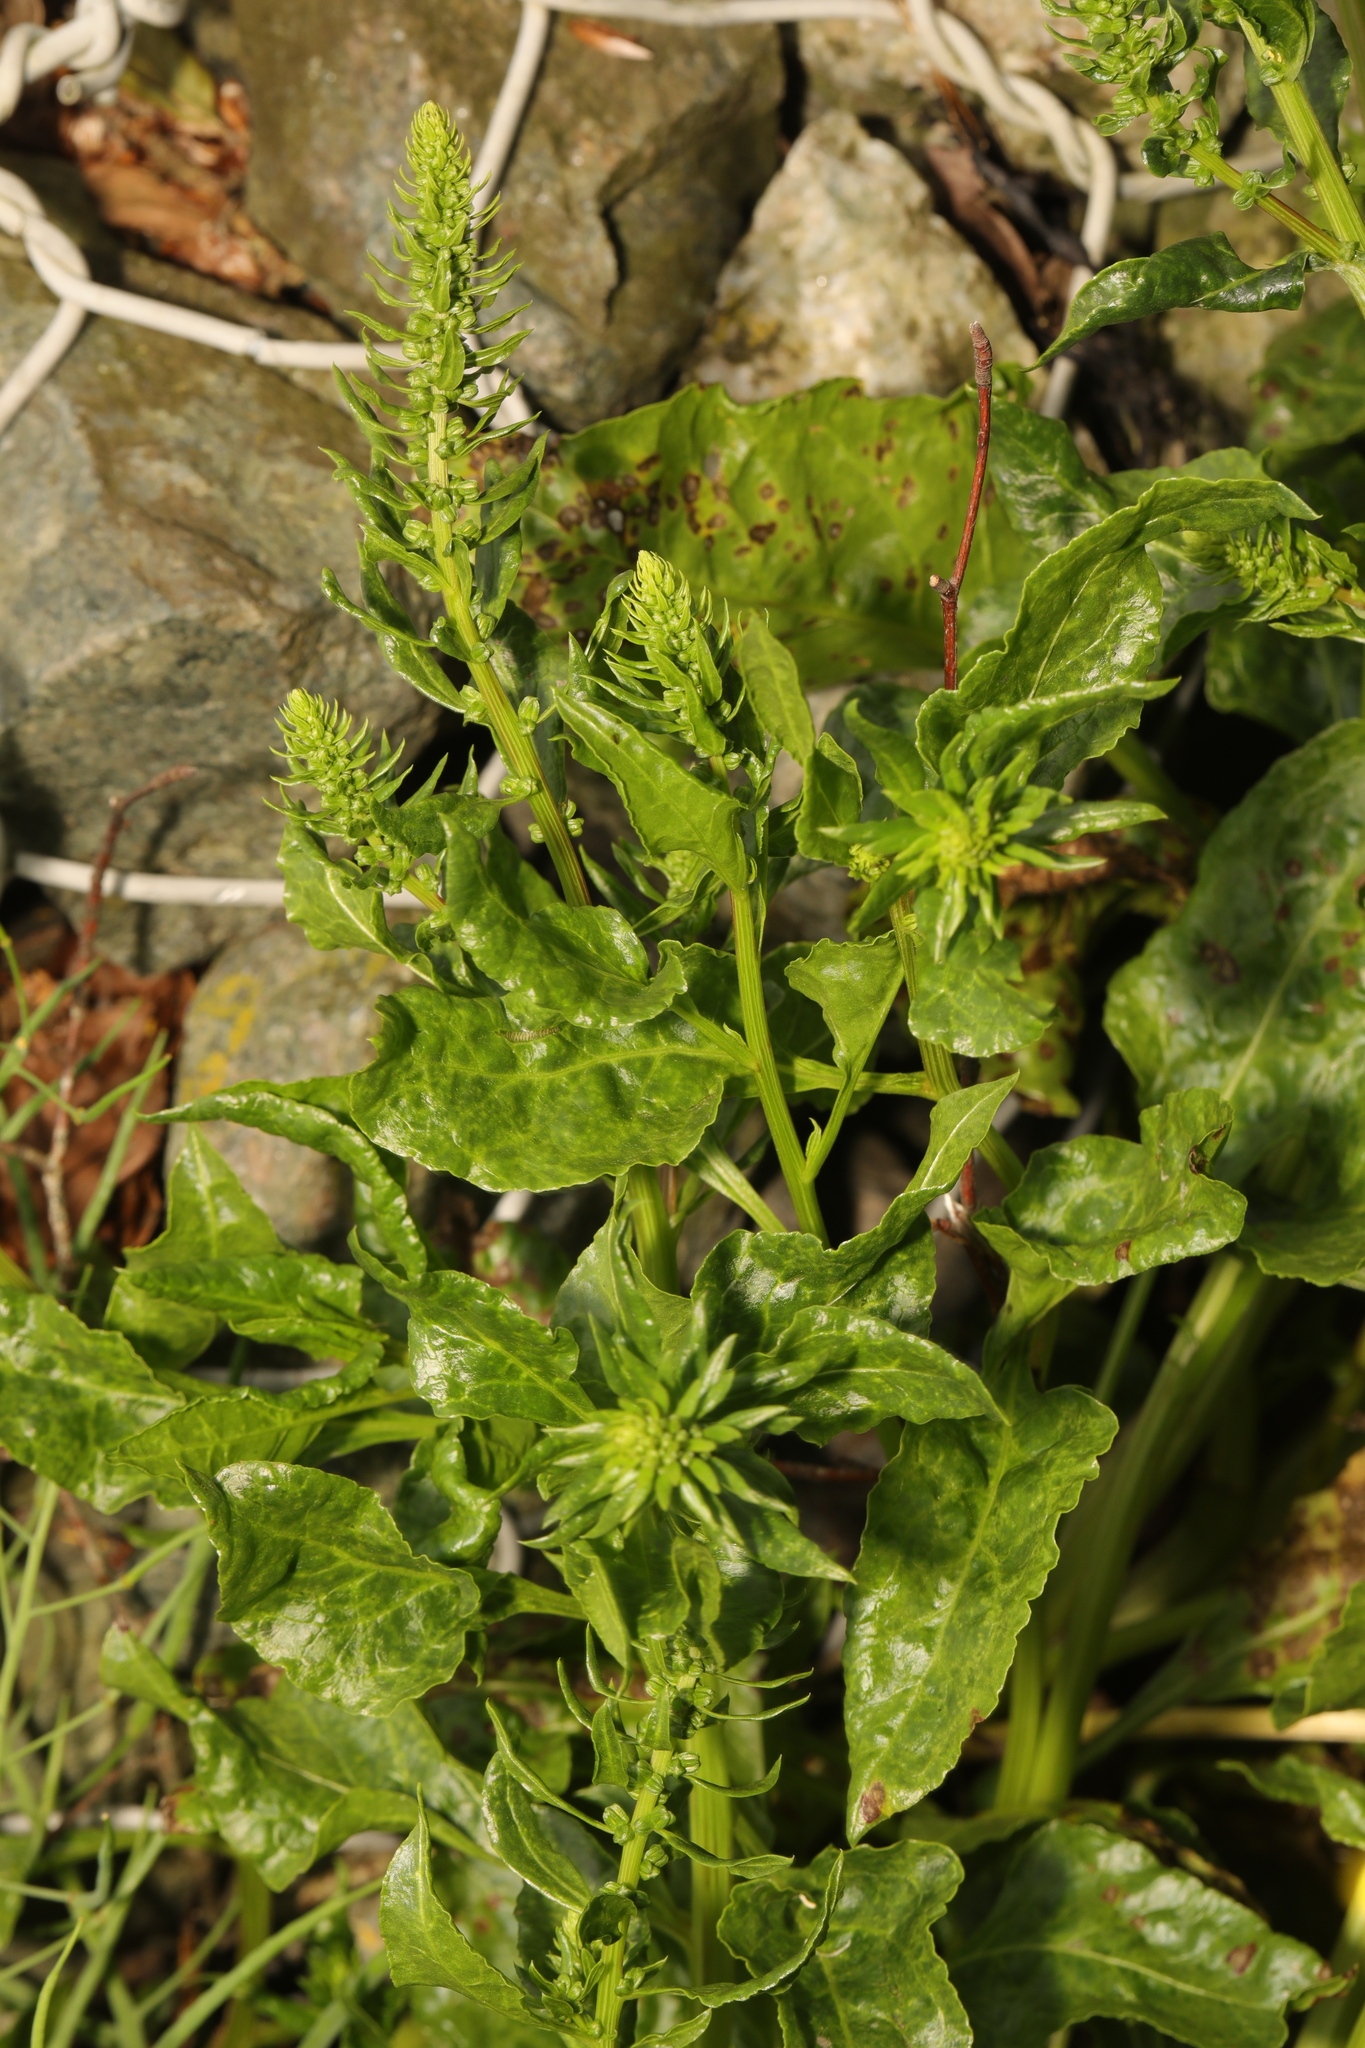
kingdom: Plantae
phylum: Tracheophyta
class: Magnoliopsida
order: Caryophyllales
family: Amaranthaceae
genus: Beta
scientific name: Beta vulgaris
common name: Beet
